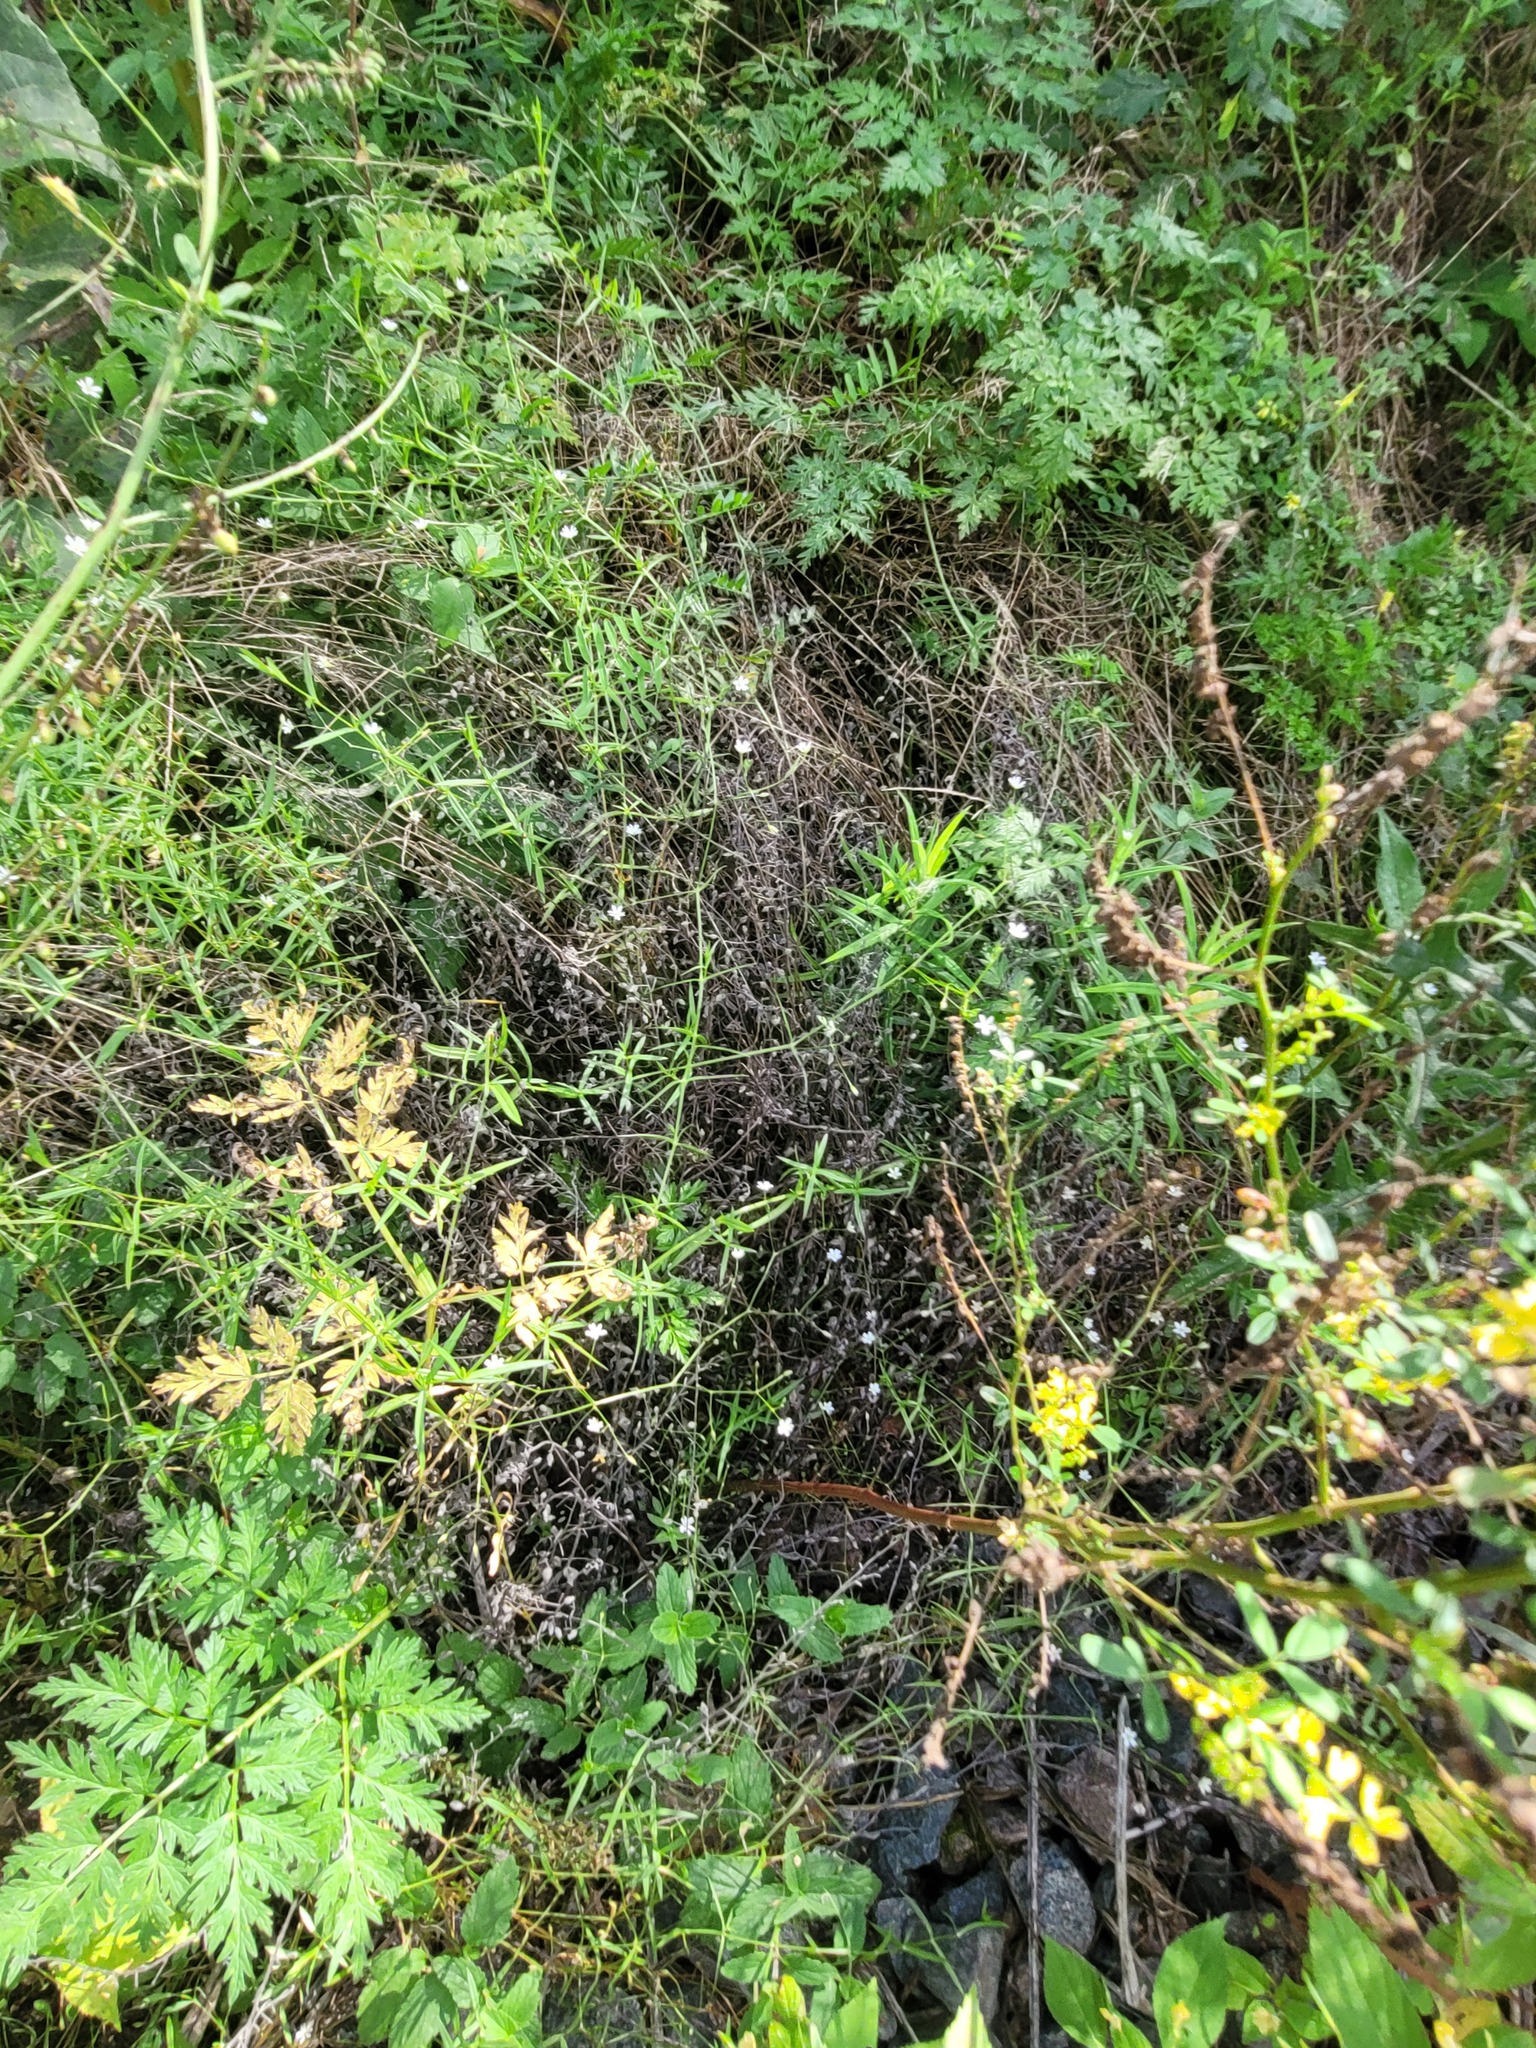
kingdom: Plantae
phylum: Tracheophyta
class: Magnoliopsida
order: Caryophyllales
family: Caryophyllaceae
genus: Stellaria
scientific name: Stellaria graminea
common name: Grass-like starwort
